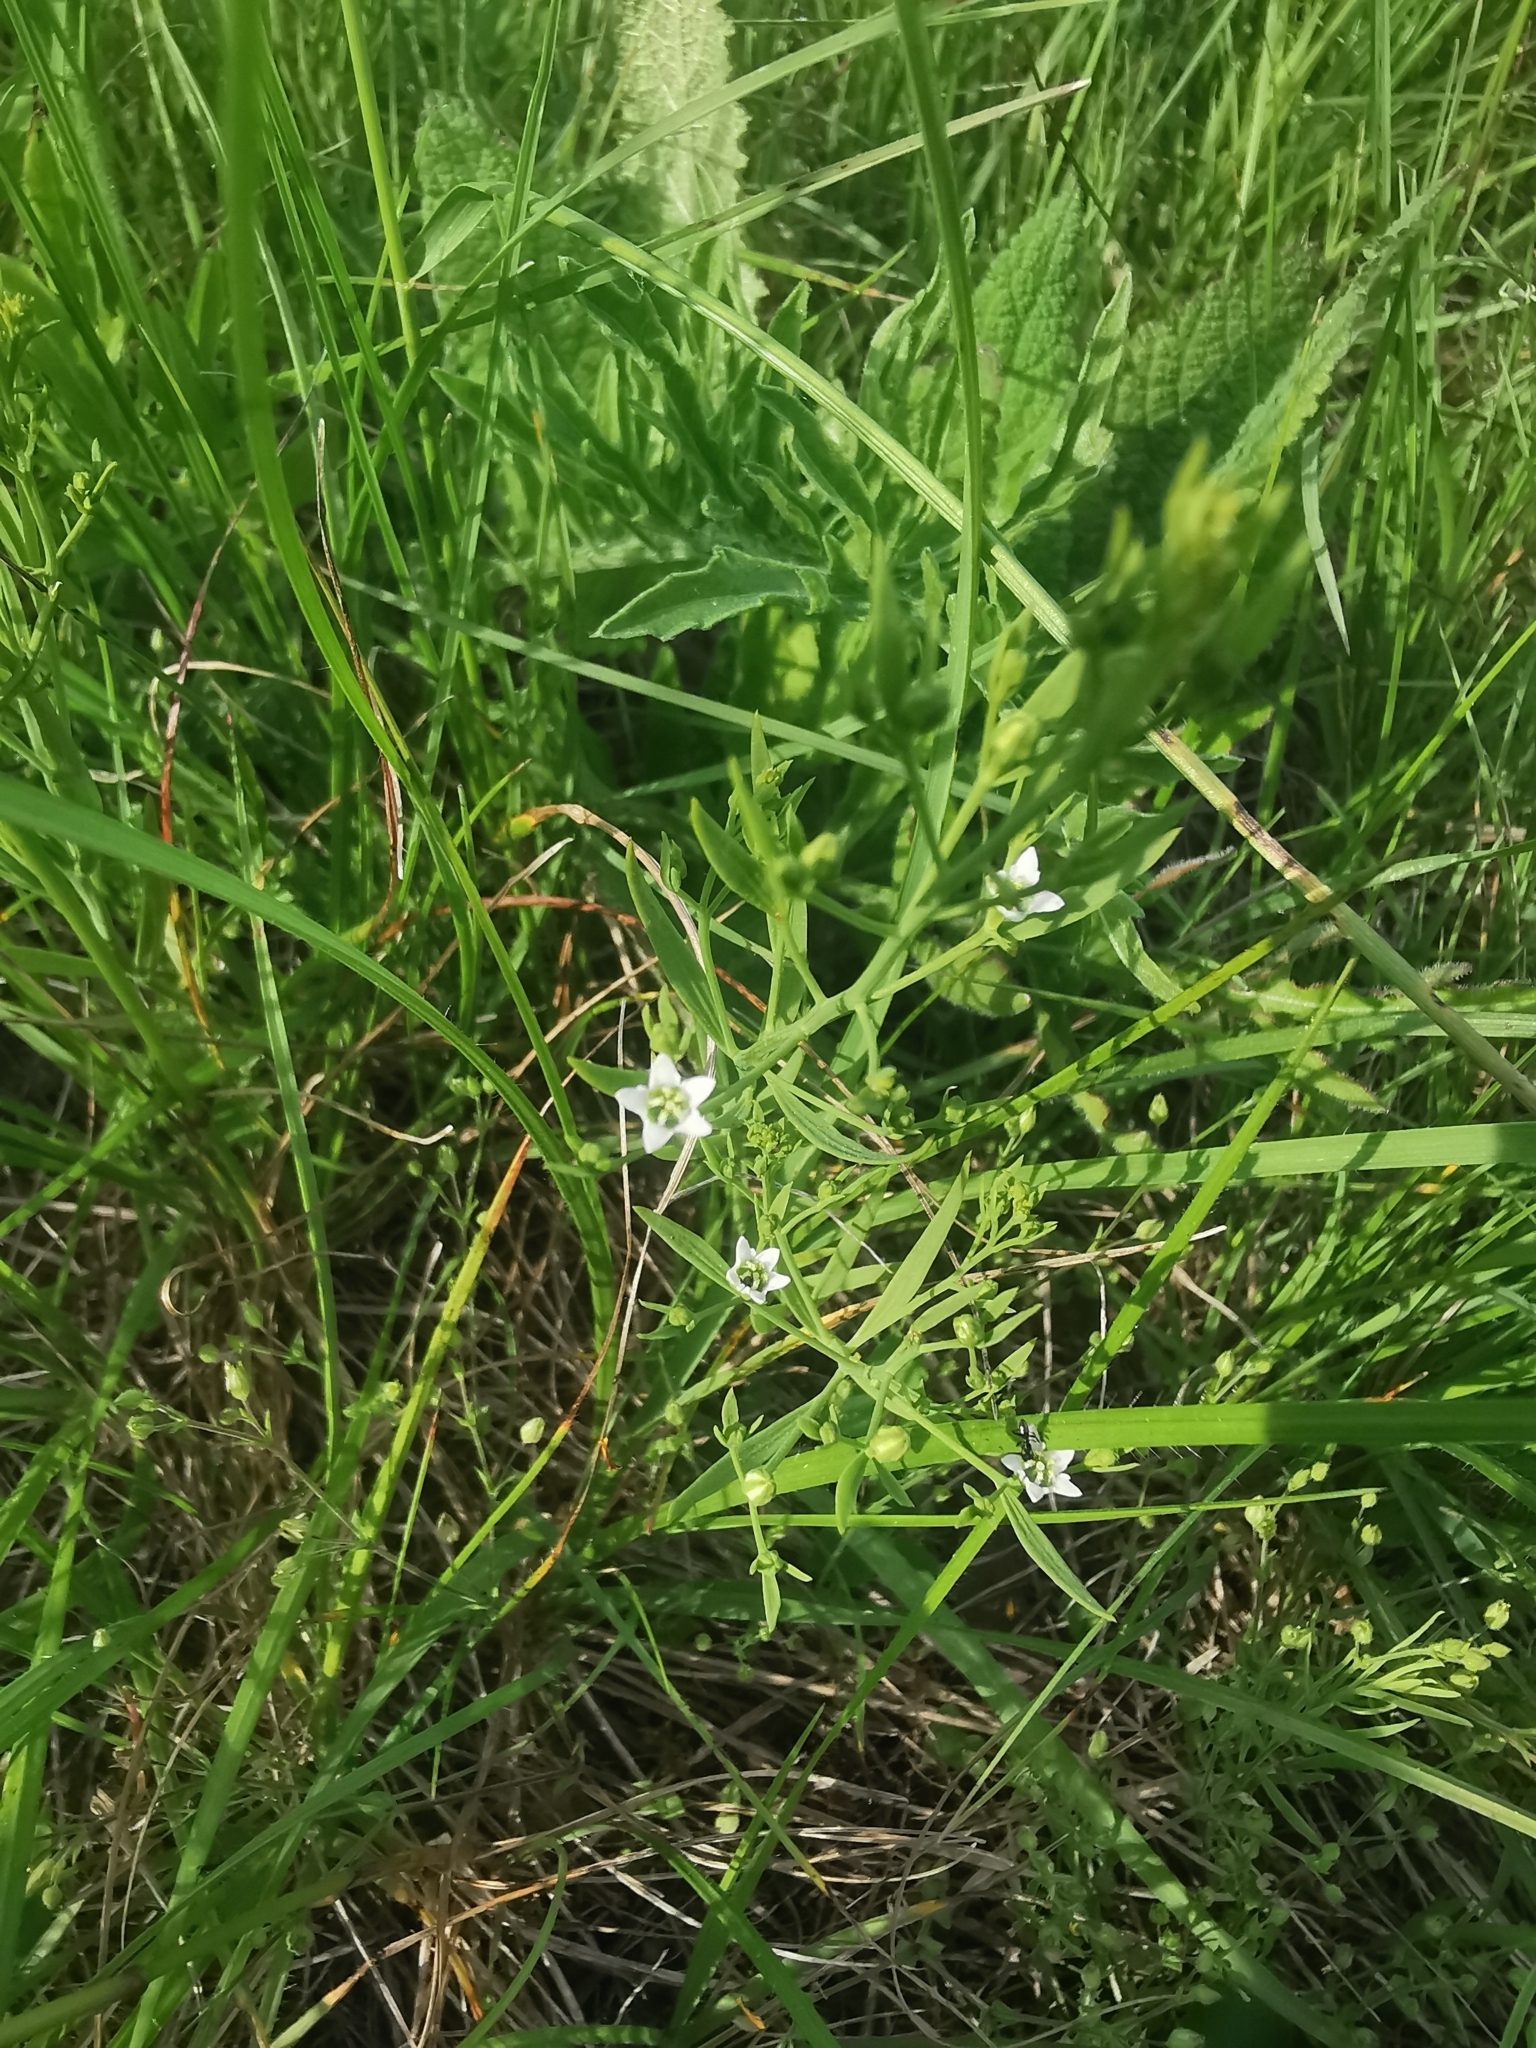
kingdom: Plantae
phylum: Tracheophyta
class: Magnoliopsida
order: Santalales
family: Thesiaceae
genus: Thesium
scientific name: Thesium linophyllon
